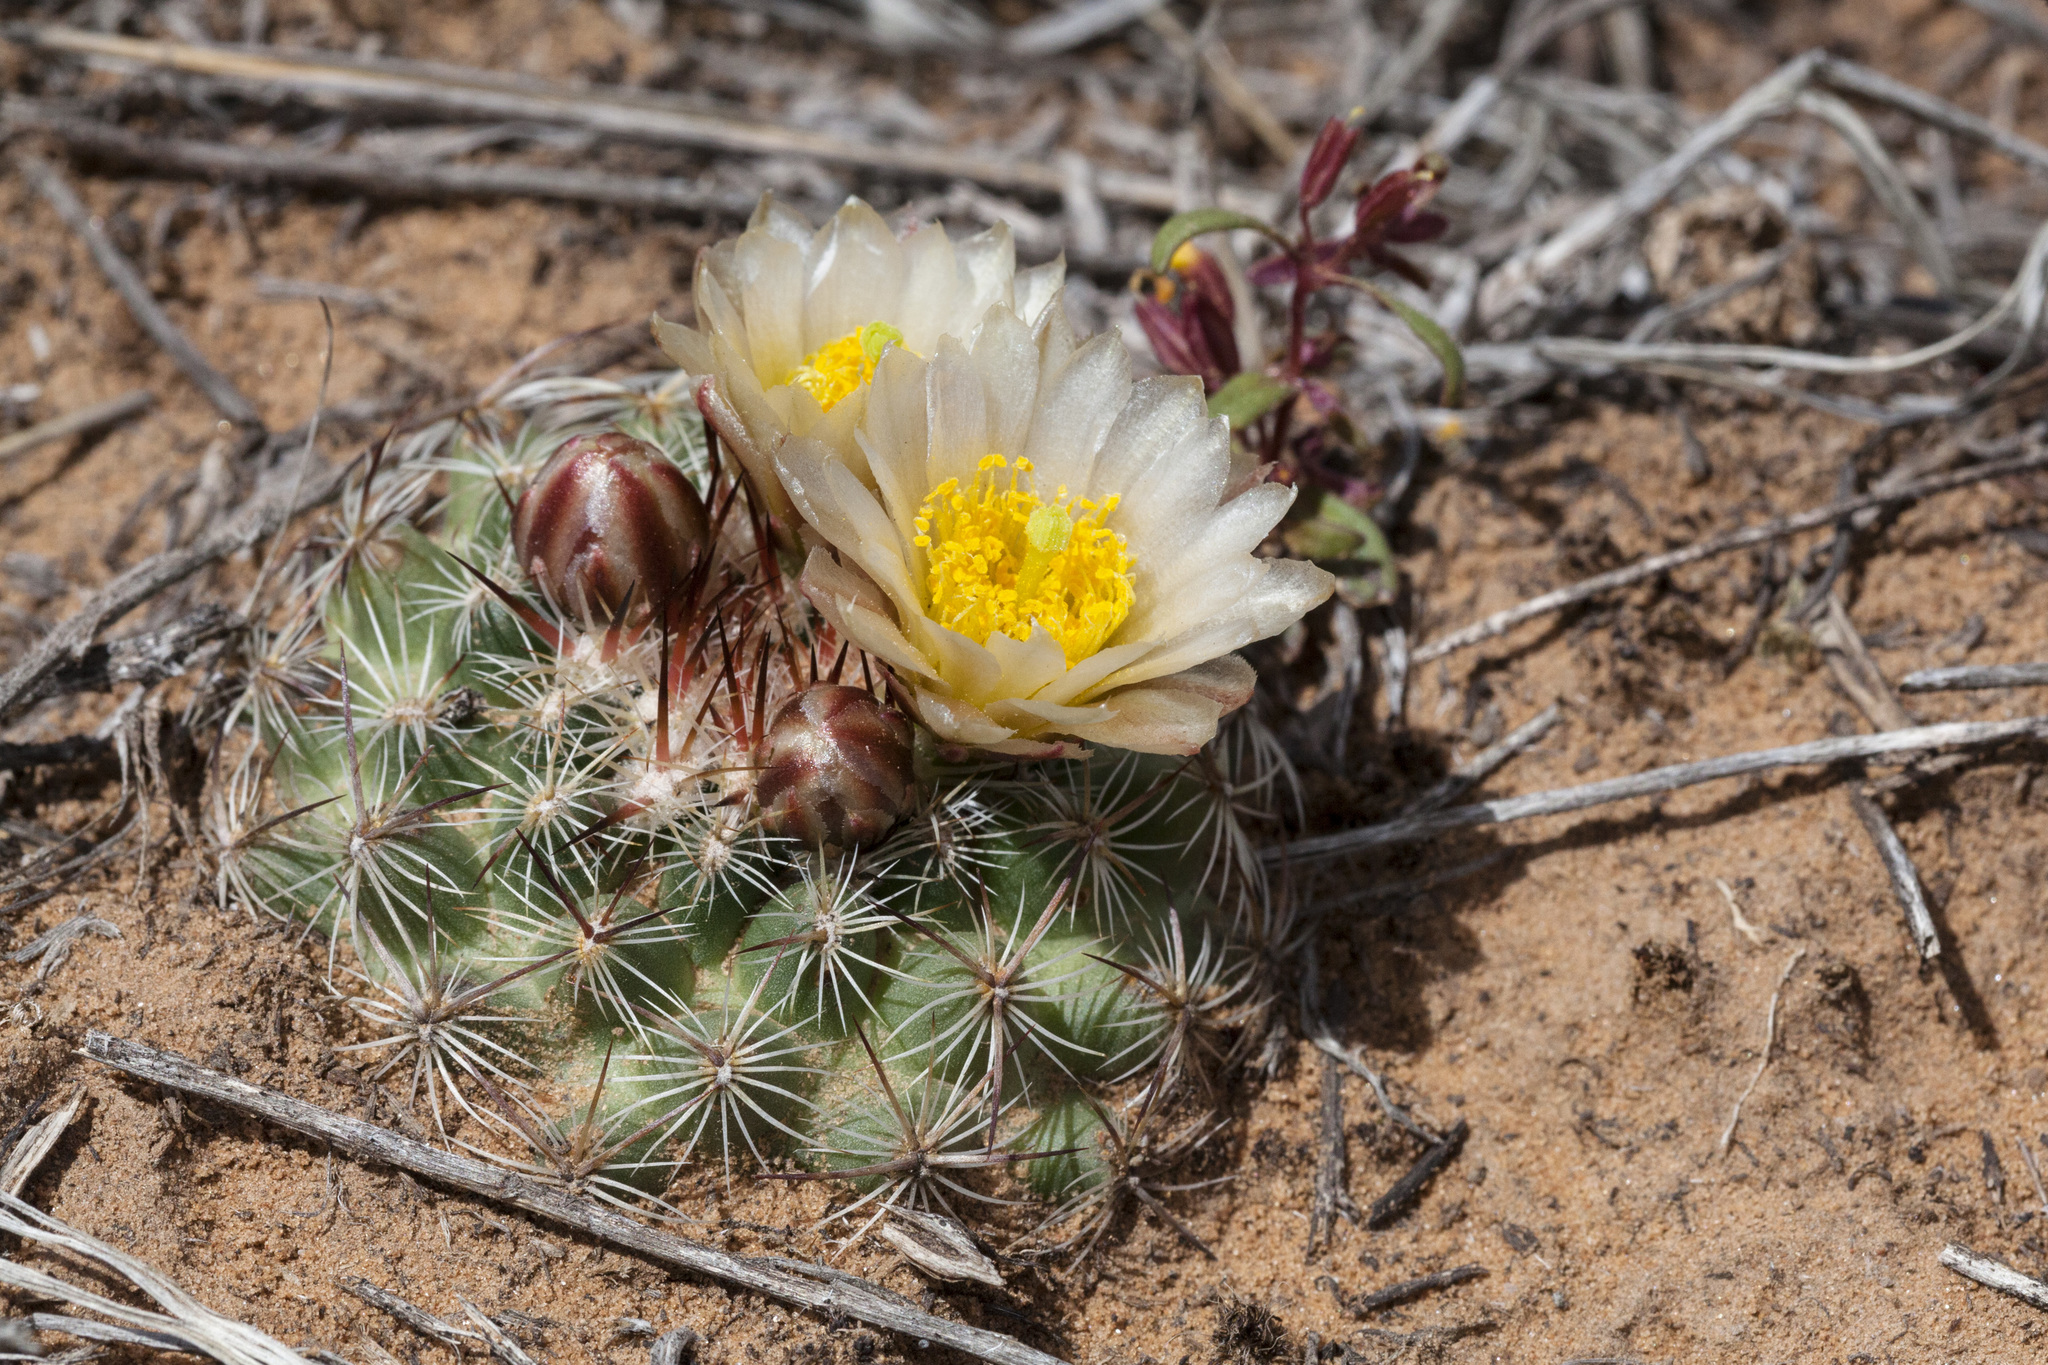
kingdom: Plantae
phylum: Tracheophyta
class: Magnoliopsida
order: Caryophyllales
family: Cactaceae
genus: Pediocactus
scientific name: Pediocactus simpsonii
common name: Simpson's hedgehog cactus
